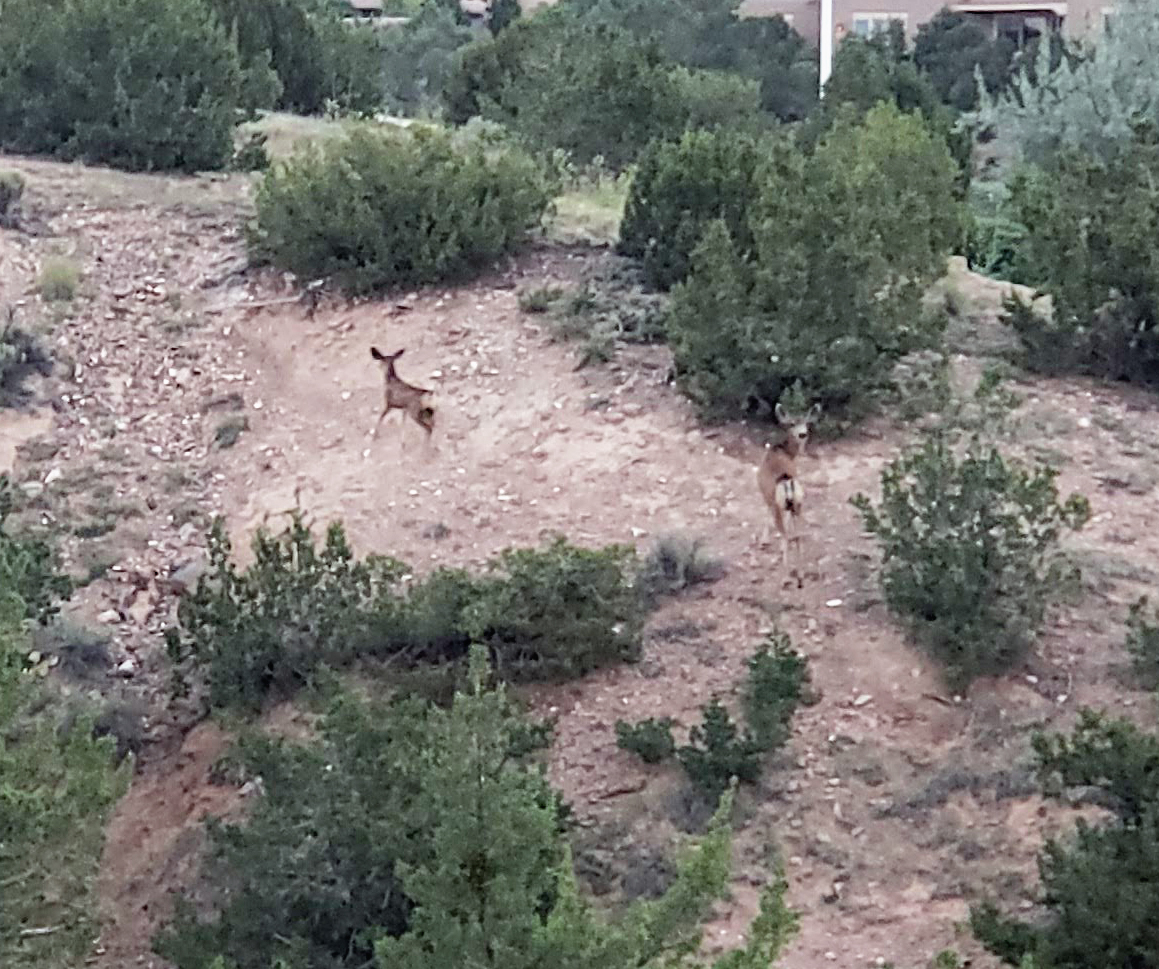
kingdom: Animalia
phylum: Chordata
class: Mammalia
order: Artiodactyla
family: Cervidae
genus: Odocoileus
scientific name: Odocoileus hemionus
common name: Mule deer
